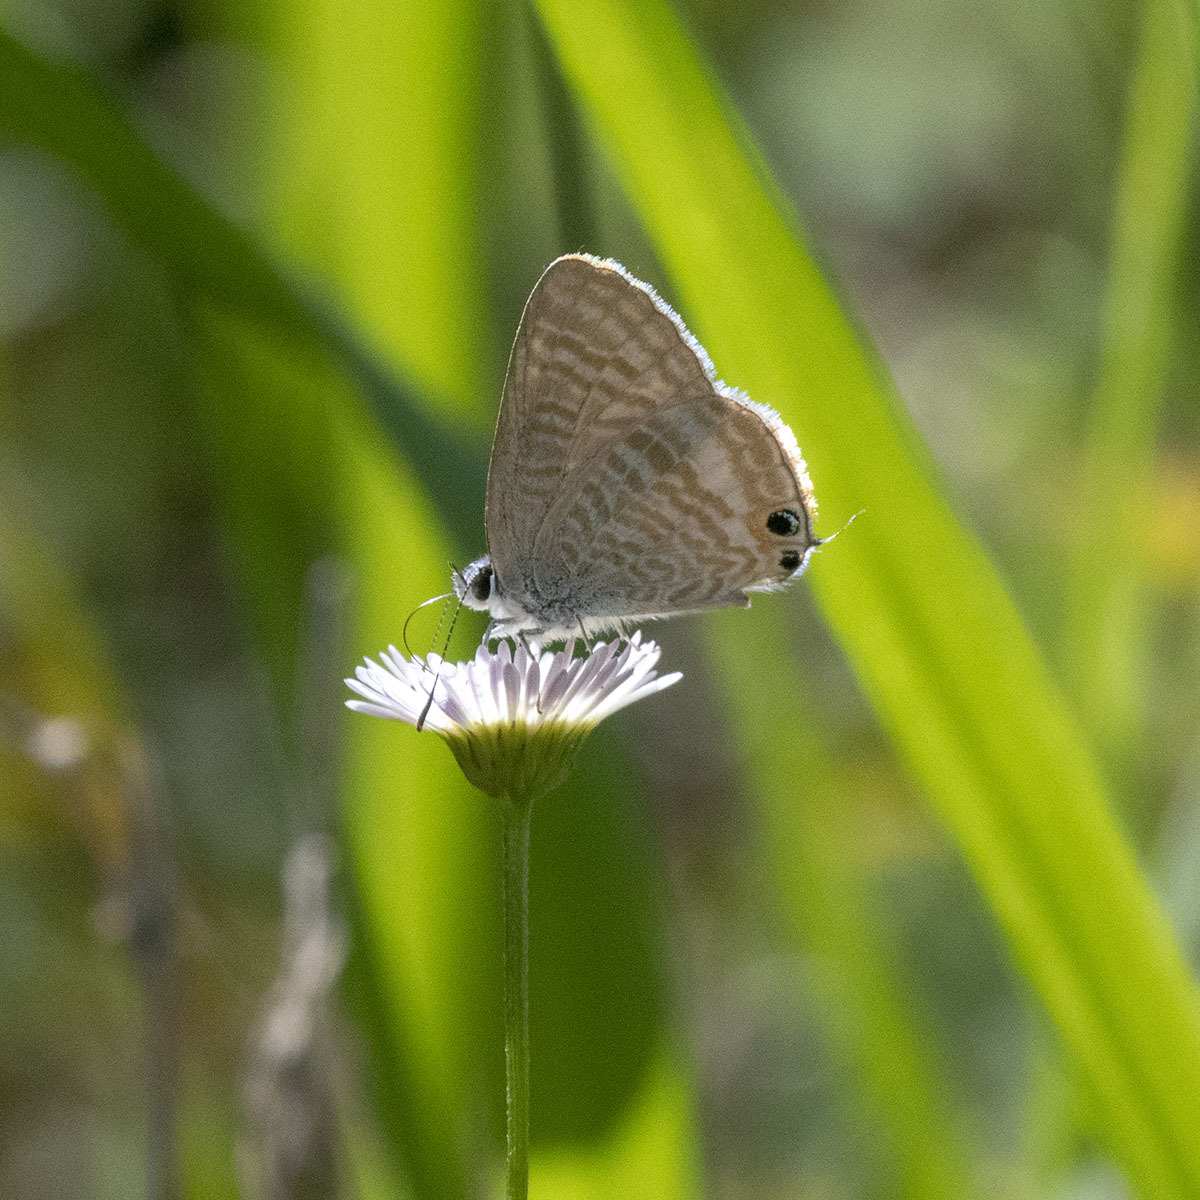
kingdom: Animalia
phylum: Arthropoda
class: Insecta
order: Lepidoptera
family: Lycaenidae
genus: Lampides
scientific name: Lampides boeticus
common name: Long-tailed blue
